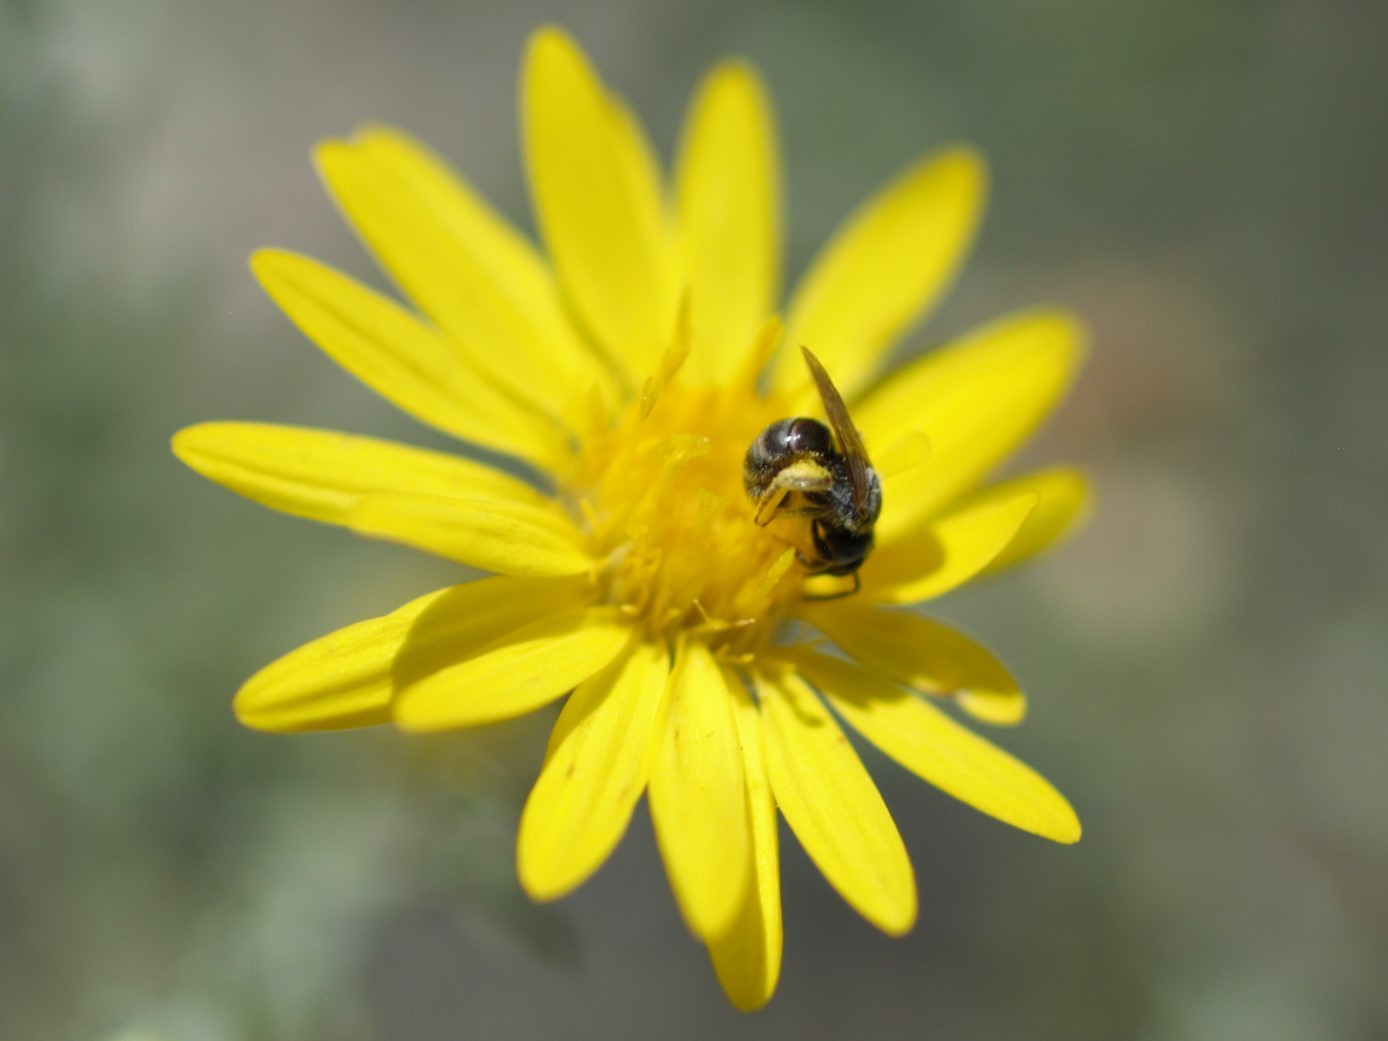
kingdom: Animalia
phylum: Arthropoda
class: Insecta
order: Hymenoptera
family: Halictidae
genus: Halictus
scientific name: Halictus tripartitus
